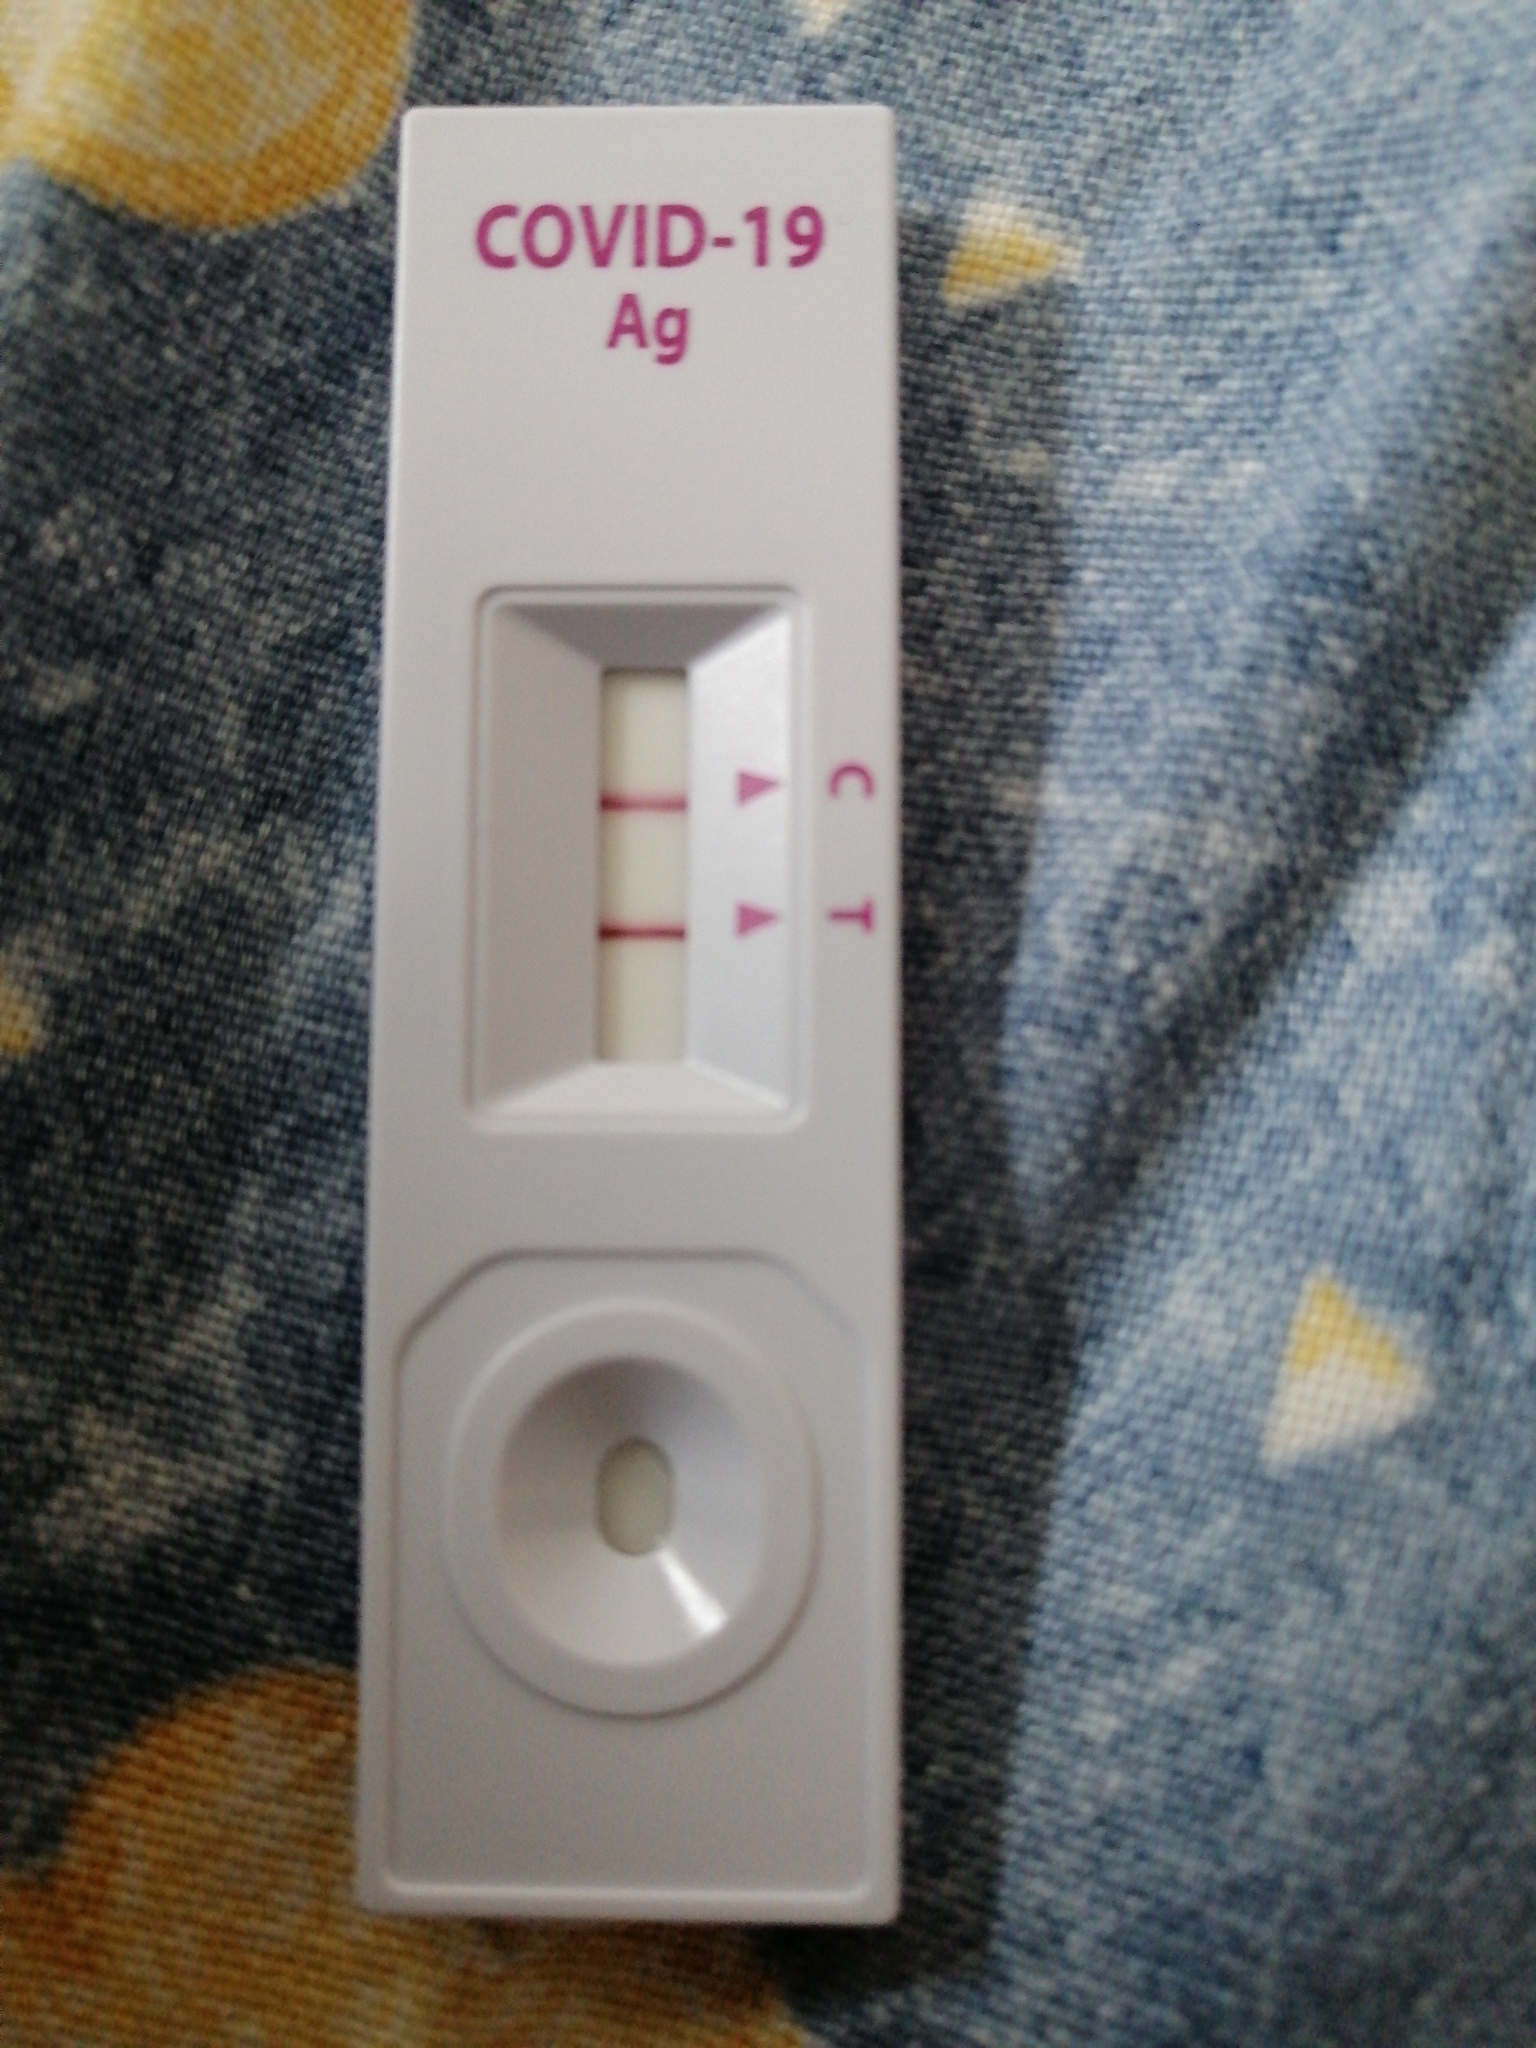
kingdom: Viruses
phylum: Pisuviricota
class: Pisoniviricetes
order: Nidovirales
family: Coronaviridae
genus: Betacoronavirus
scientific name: Betacoronavirus Severe acute respiratory syndrome-related coronavirus
